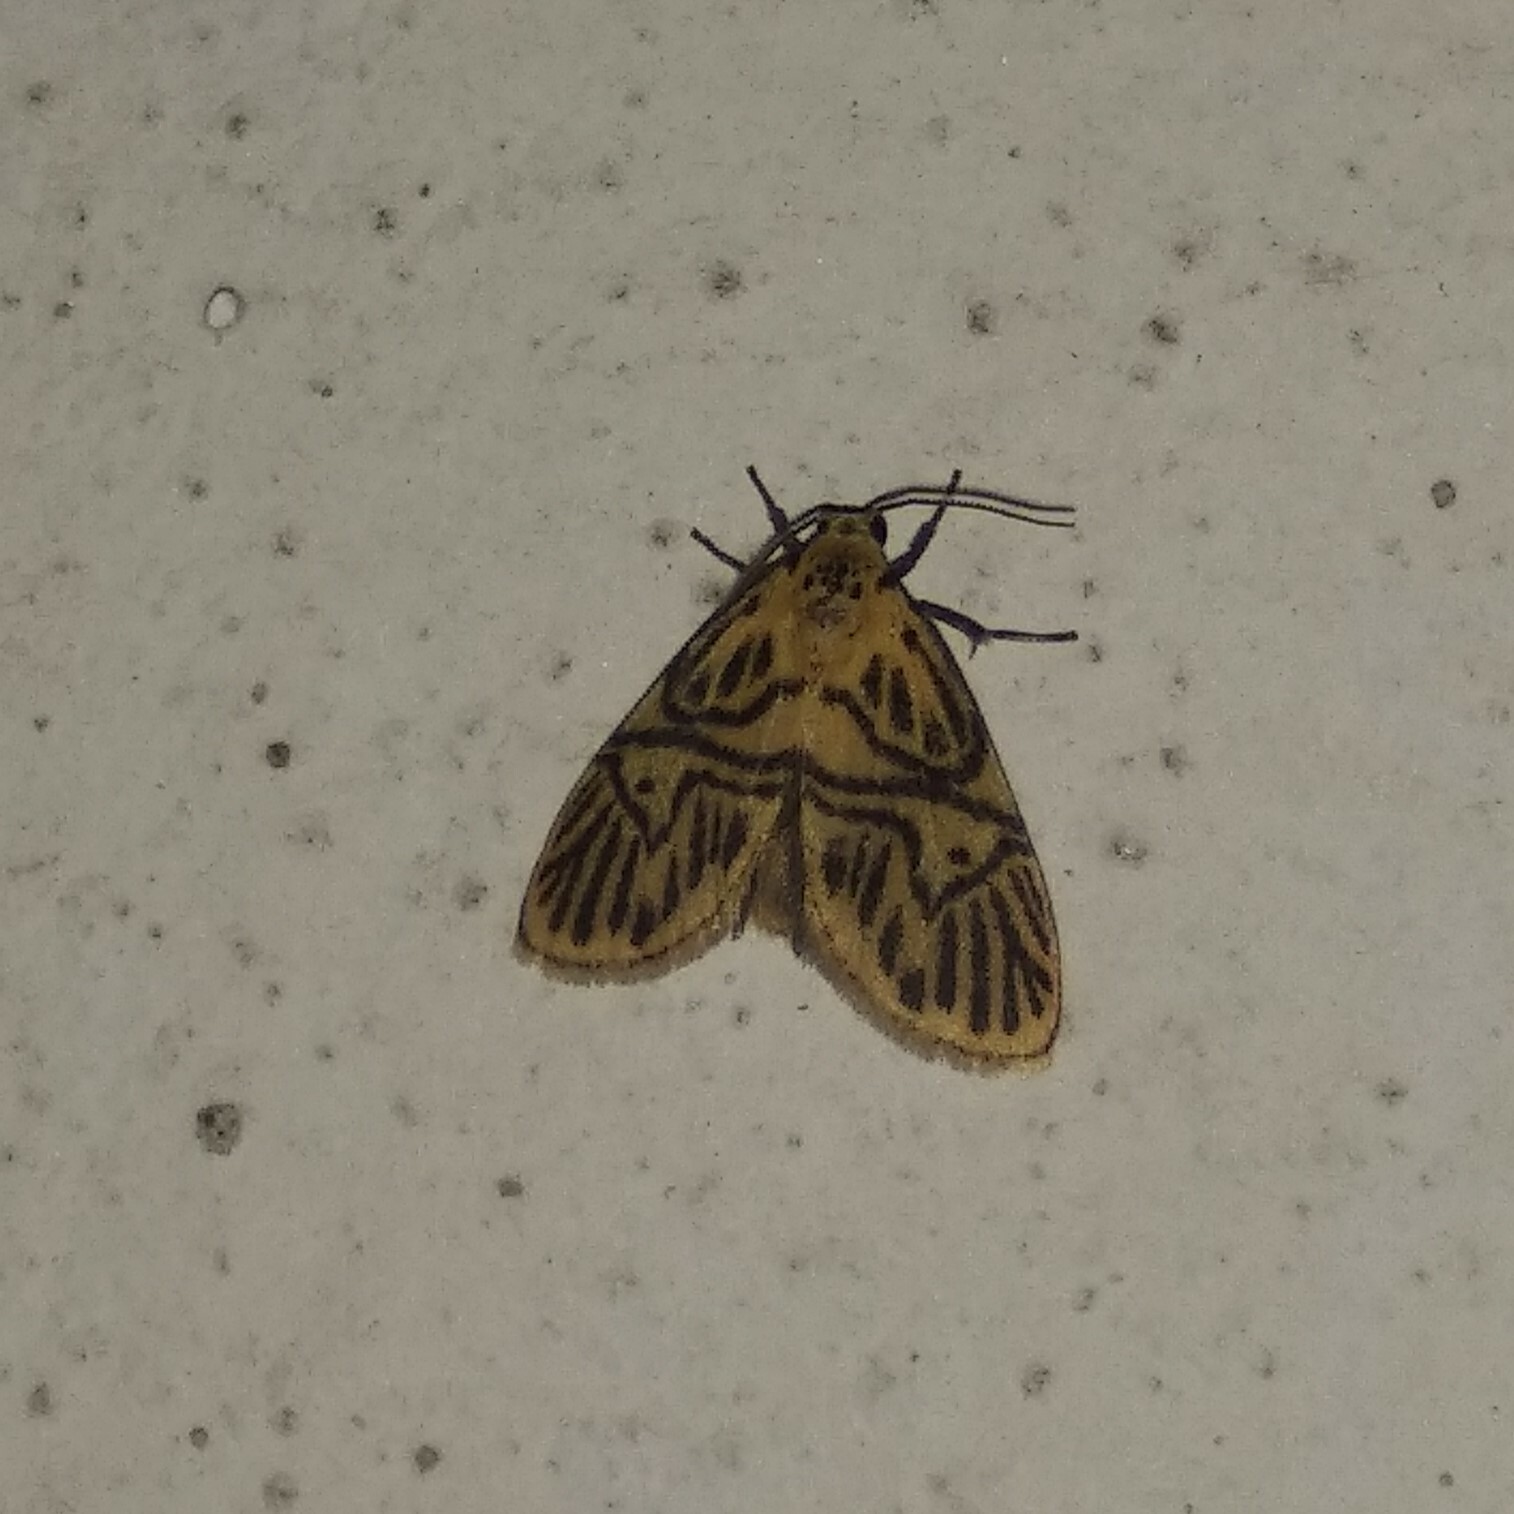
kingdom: Animalia
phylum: Arthropoda
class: Insecta
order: Lepidoptera
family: Erebidae
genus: Disasuridia
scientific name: Disasuridia fangae
